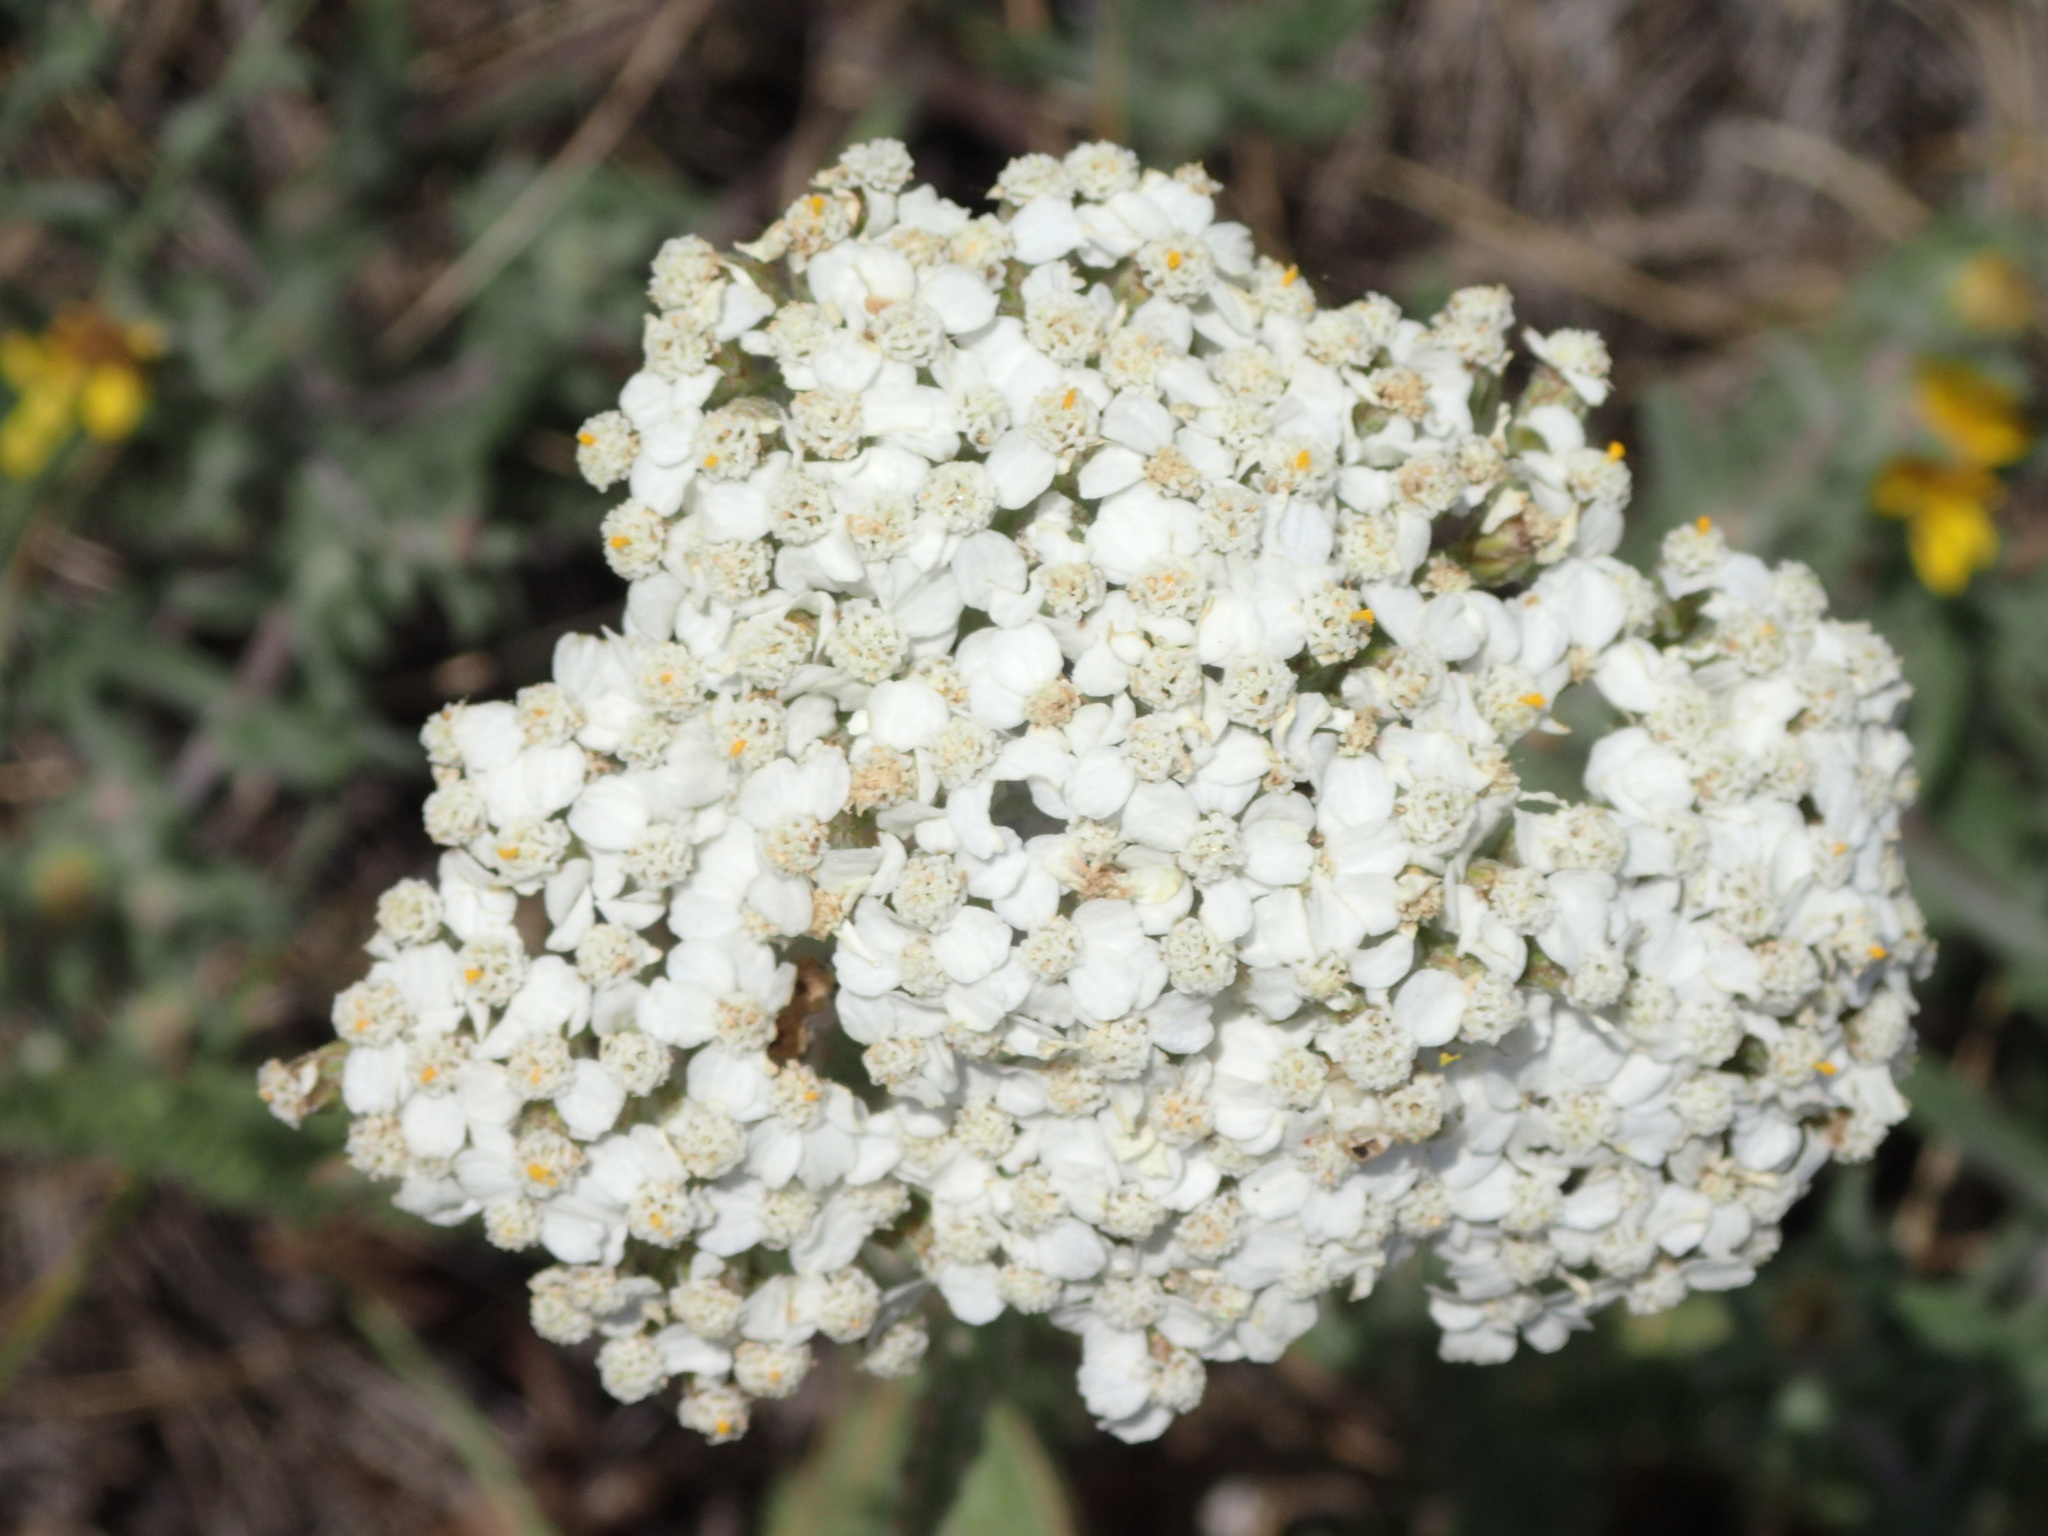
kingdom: Plantae
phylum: Tracheophyta
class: Magnoliopsida
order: Asterales
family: Asteraceae
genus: Achillea
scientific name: Achillea millefolium
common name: Yarrow
